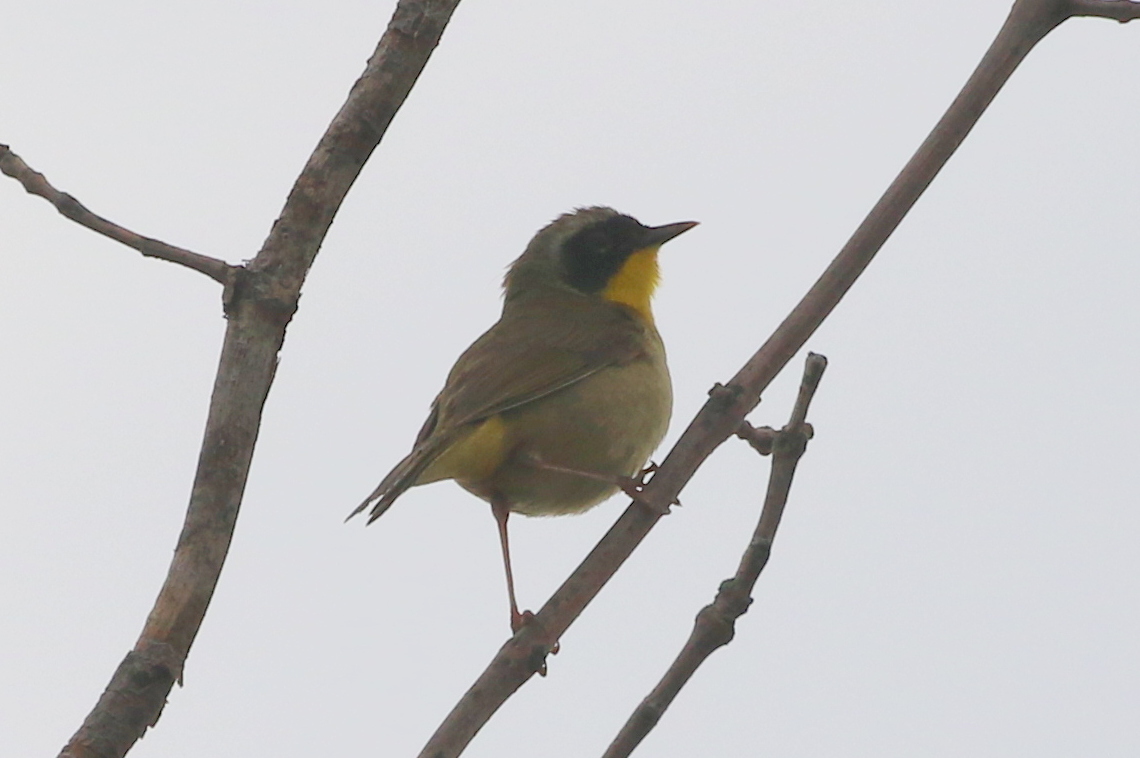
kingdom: Animalia
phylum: Chordata
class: Aves
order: Passeriformes
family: Parulidae
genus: Geothlypis
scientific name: Geothlypis trichas
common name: Common yellowthroat
